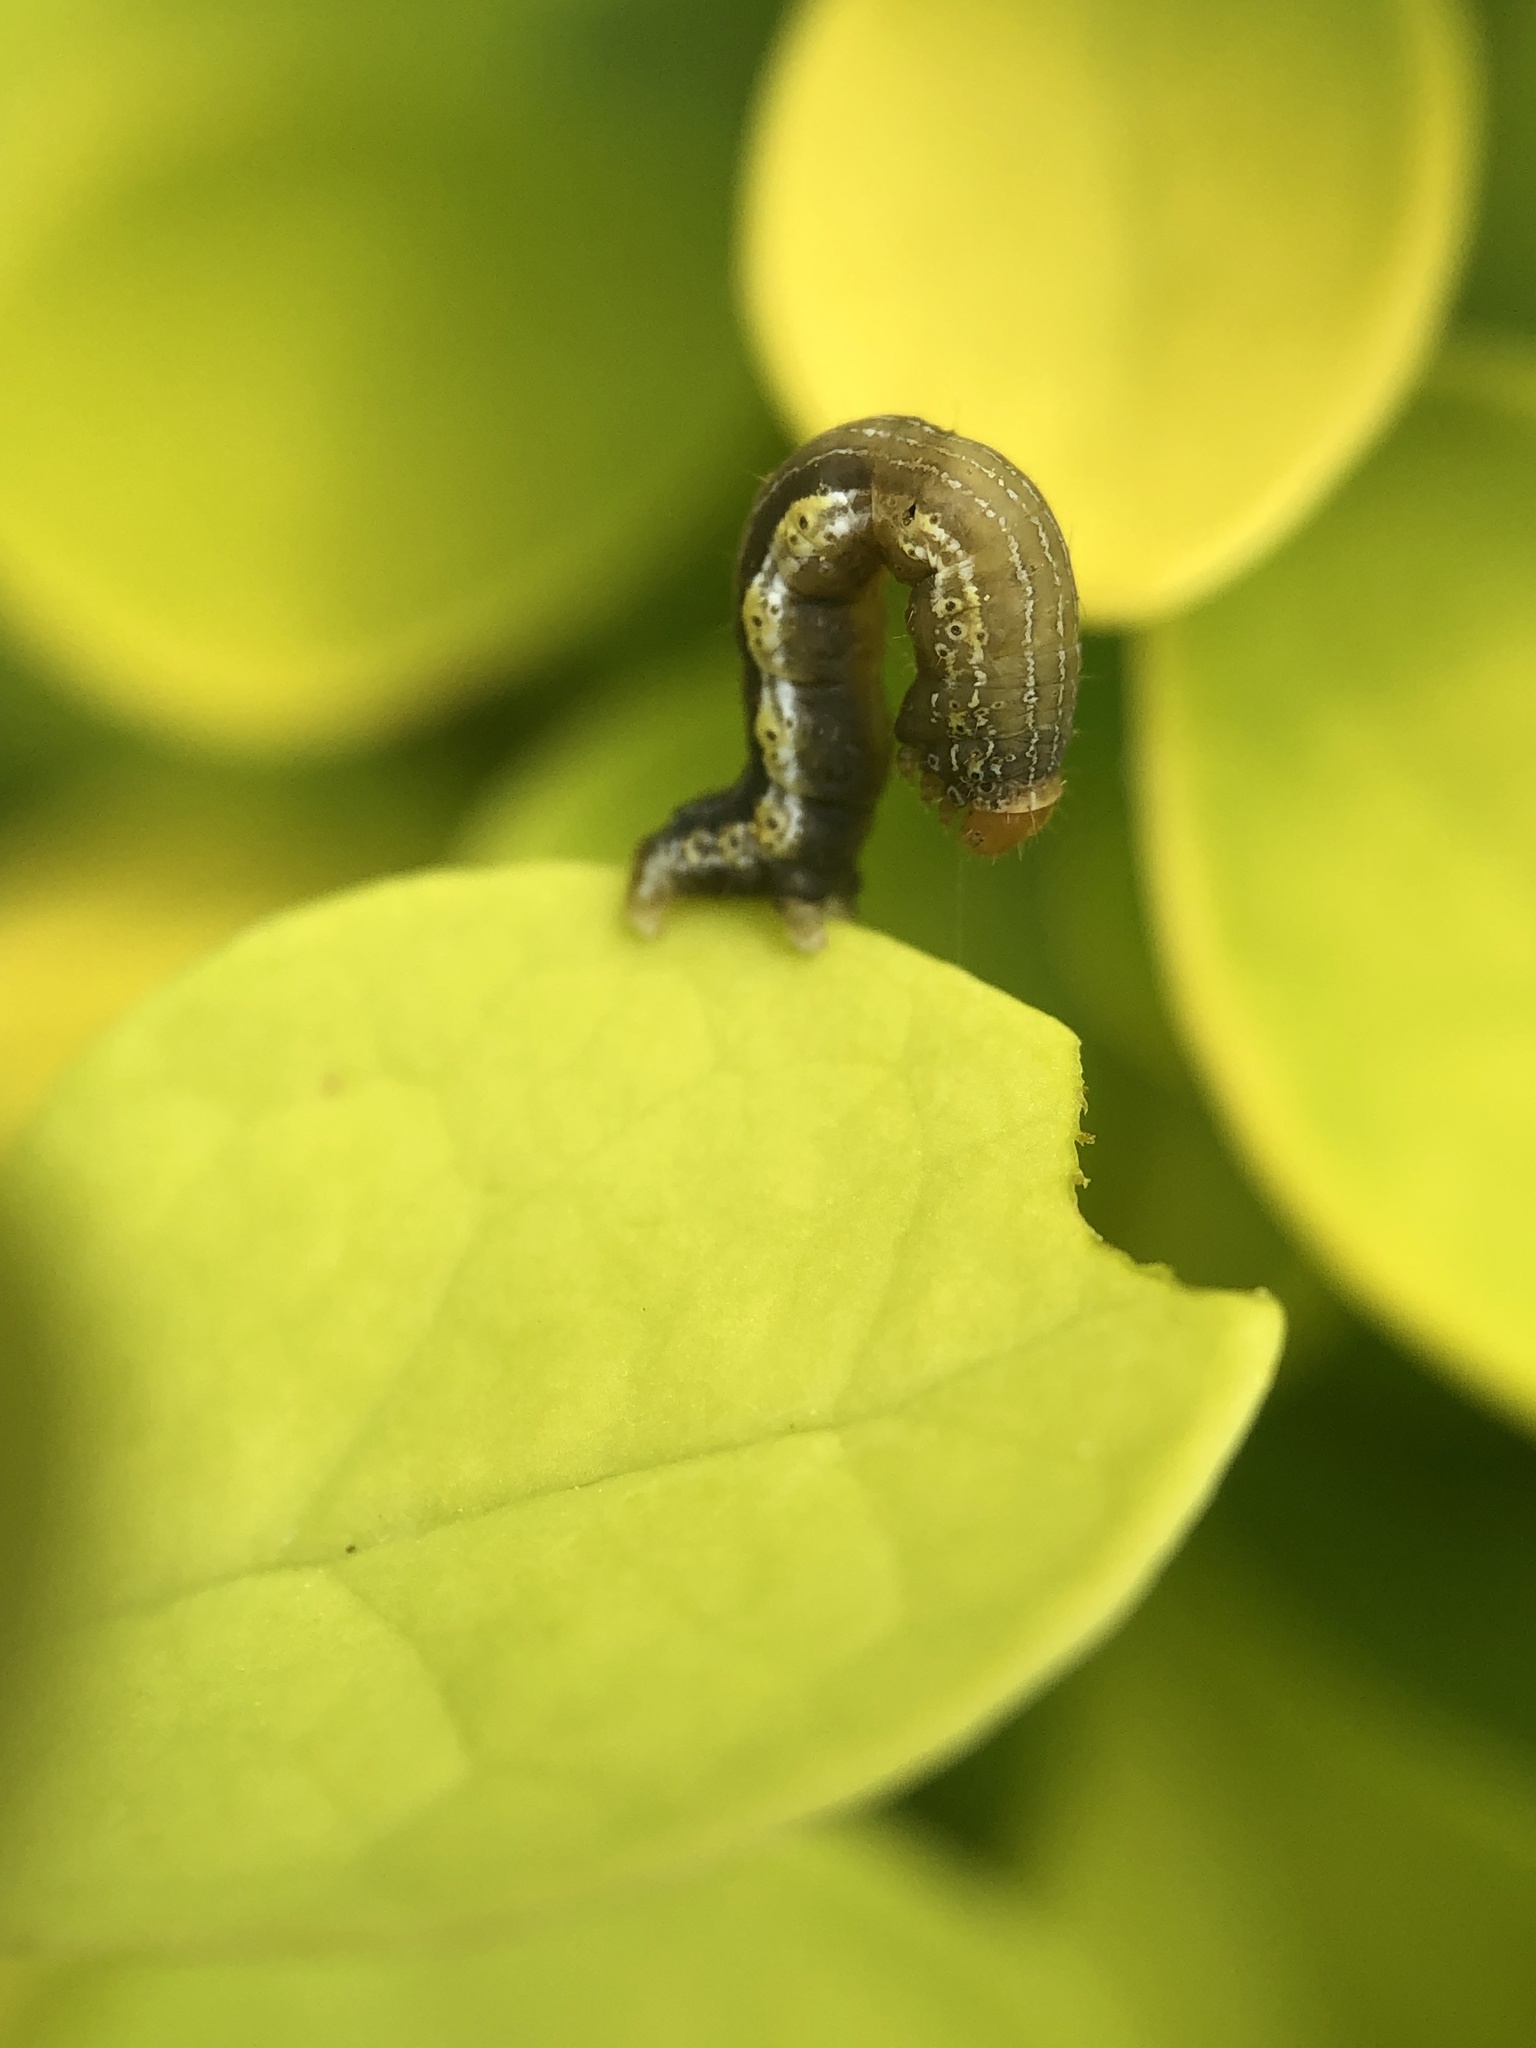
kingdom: Animalia
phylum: Arthropoda
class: Insecta
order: Lepidoptera
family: Geometridae
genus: Rheumaptera
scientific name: Rheumaptera
